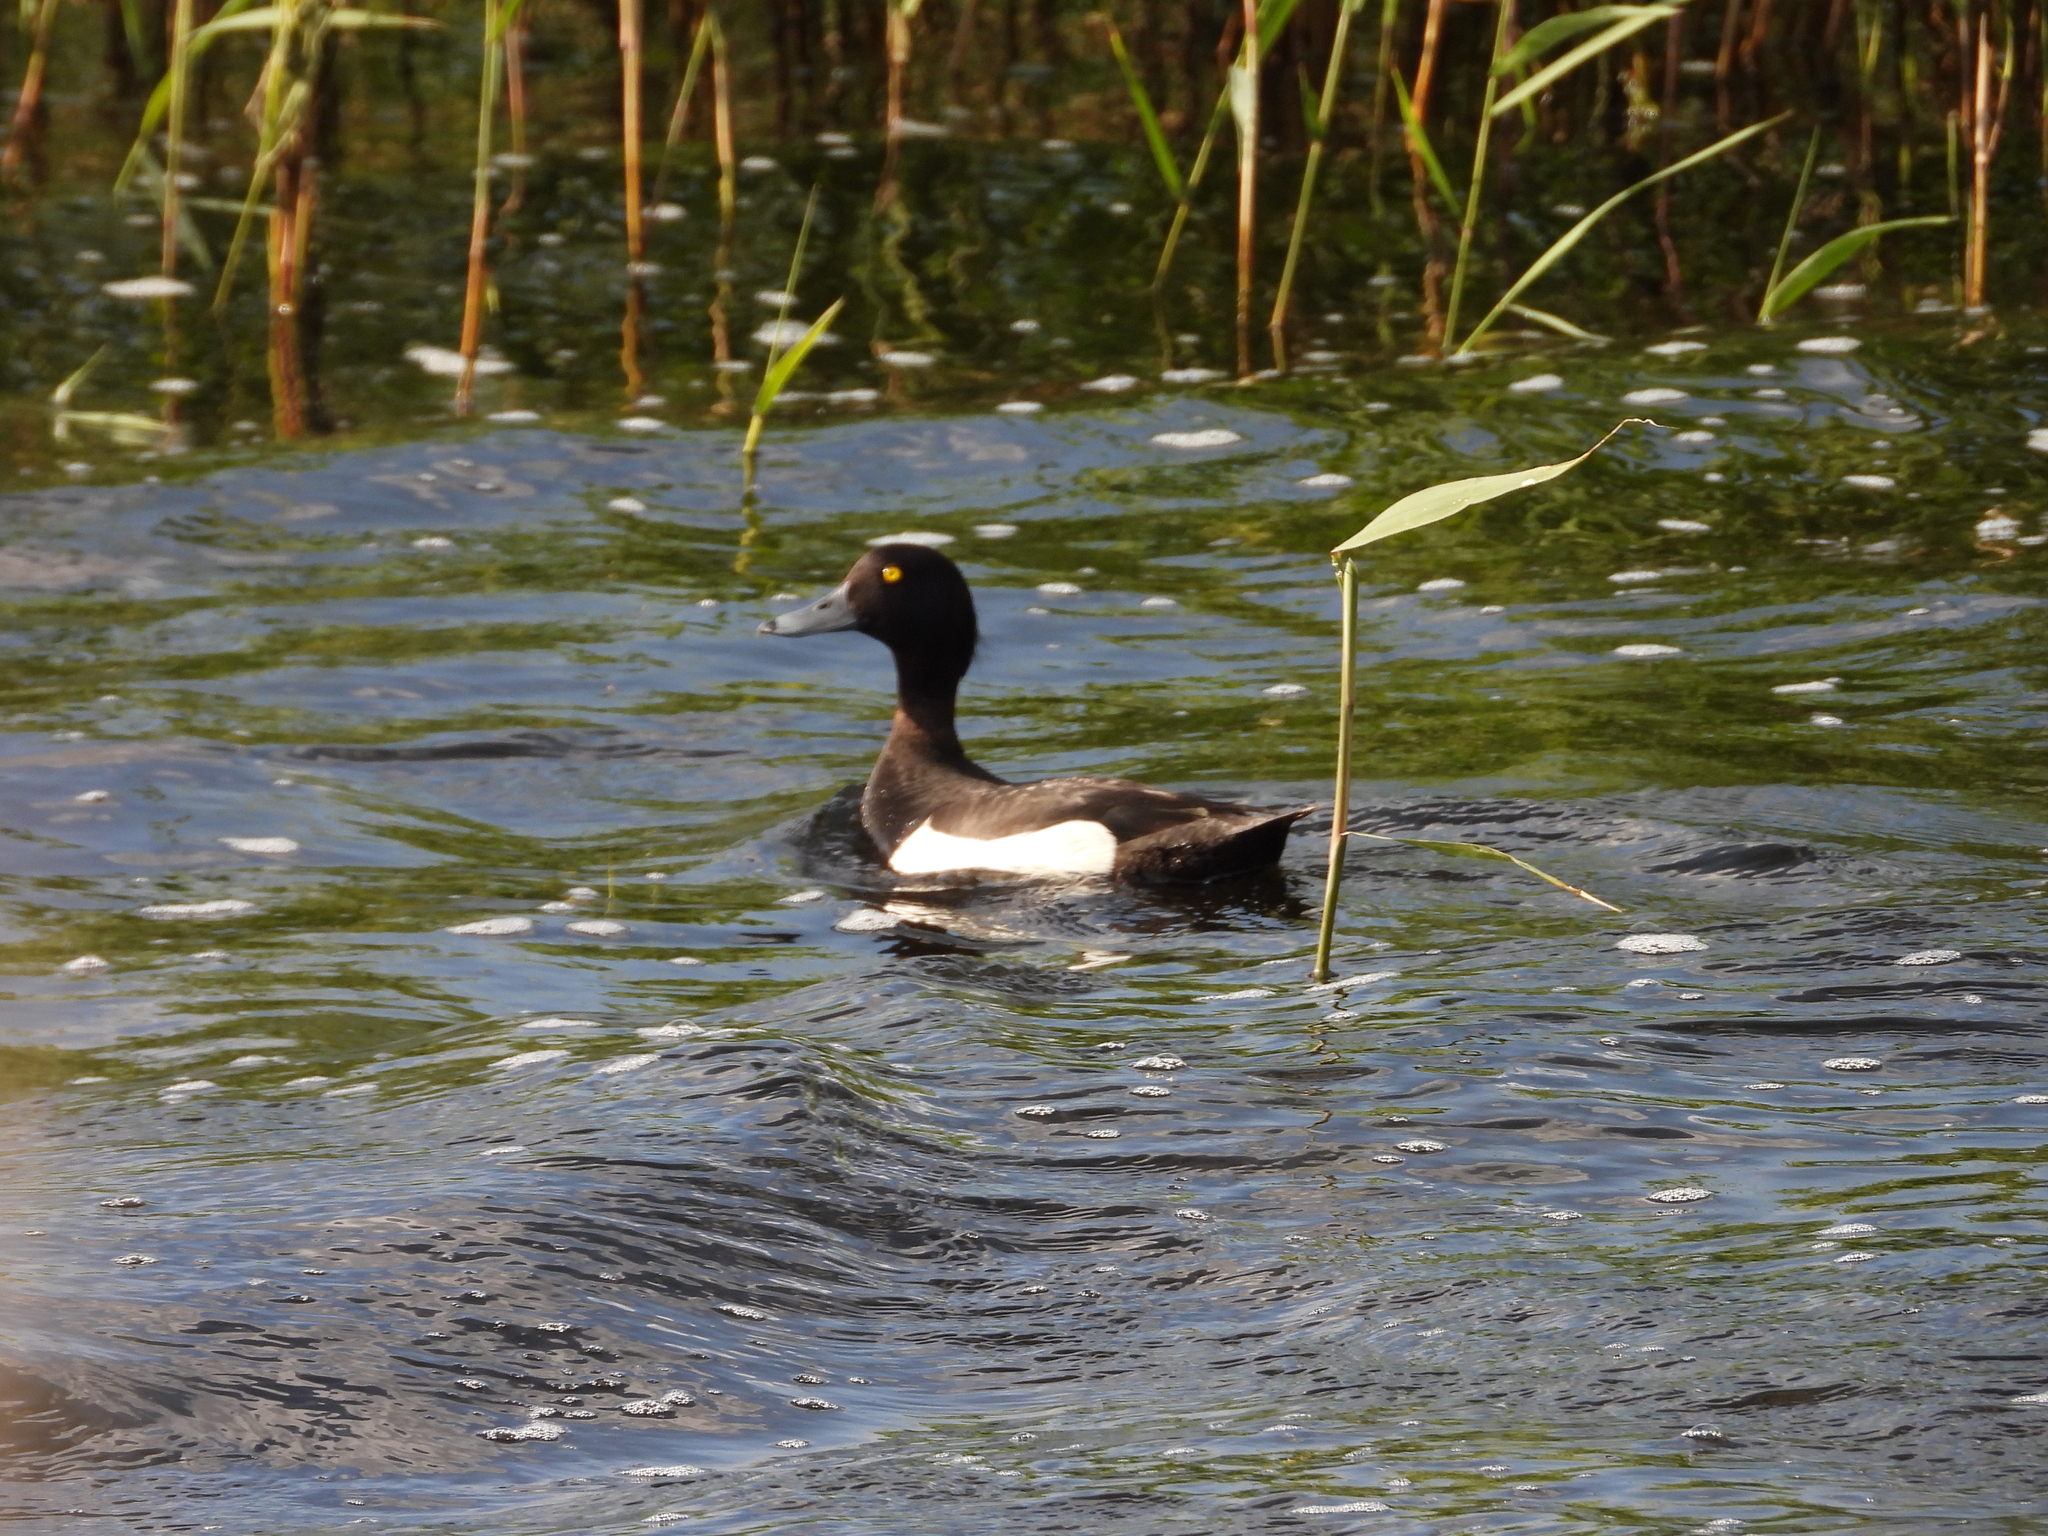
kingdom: Animalia
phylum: Chordata
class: Aves
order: Anseriformes
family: Anatidae
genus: Aythya
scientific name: Aythya fuligula
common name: Tufted duck
